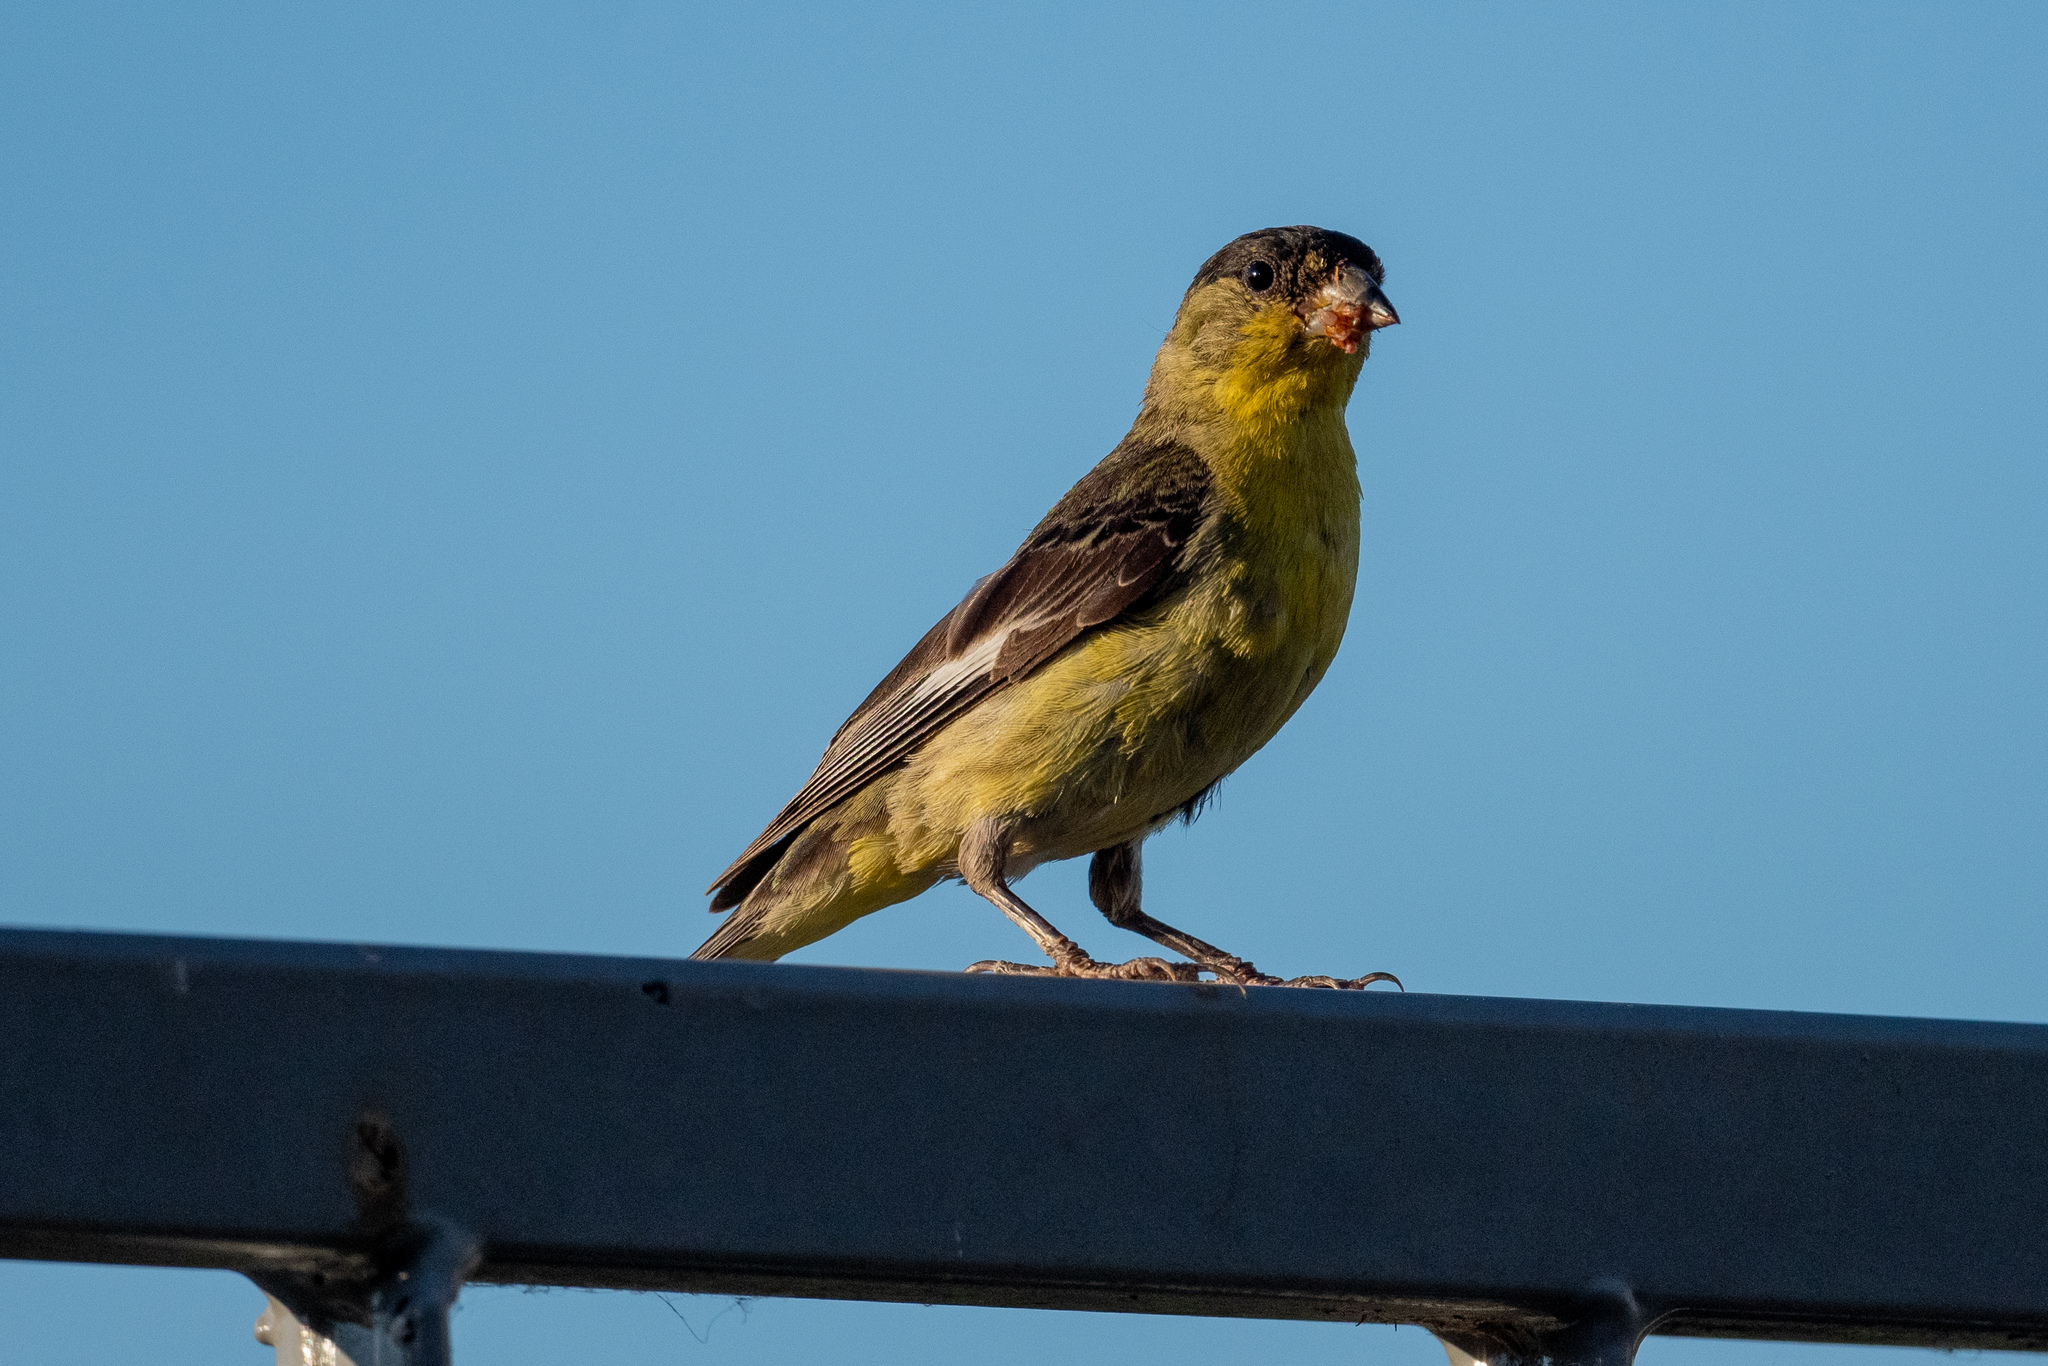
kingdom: Animalia
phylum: Chordata
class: Aves
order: Passeriformes
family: Fringillidae
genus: Spinus
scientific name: Spinus psaltria
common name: Lesser goldfinch
